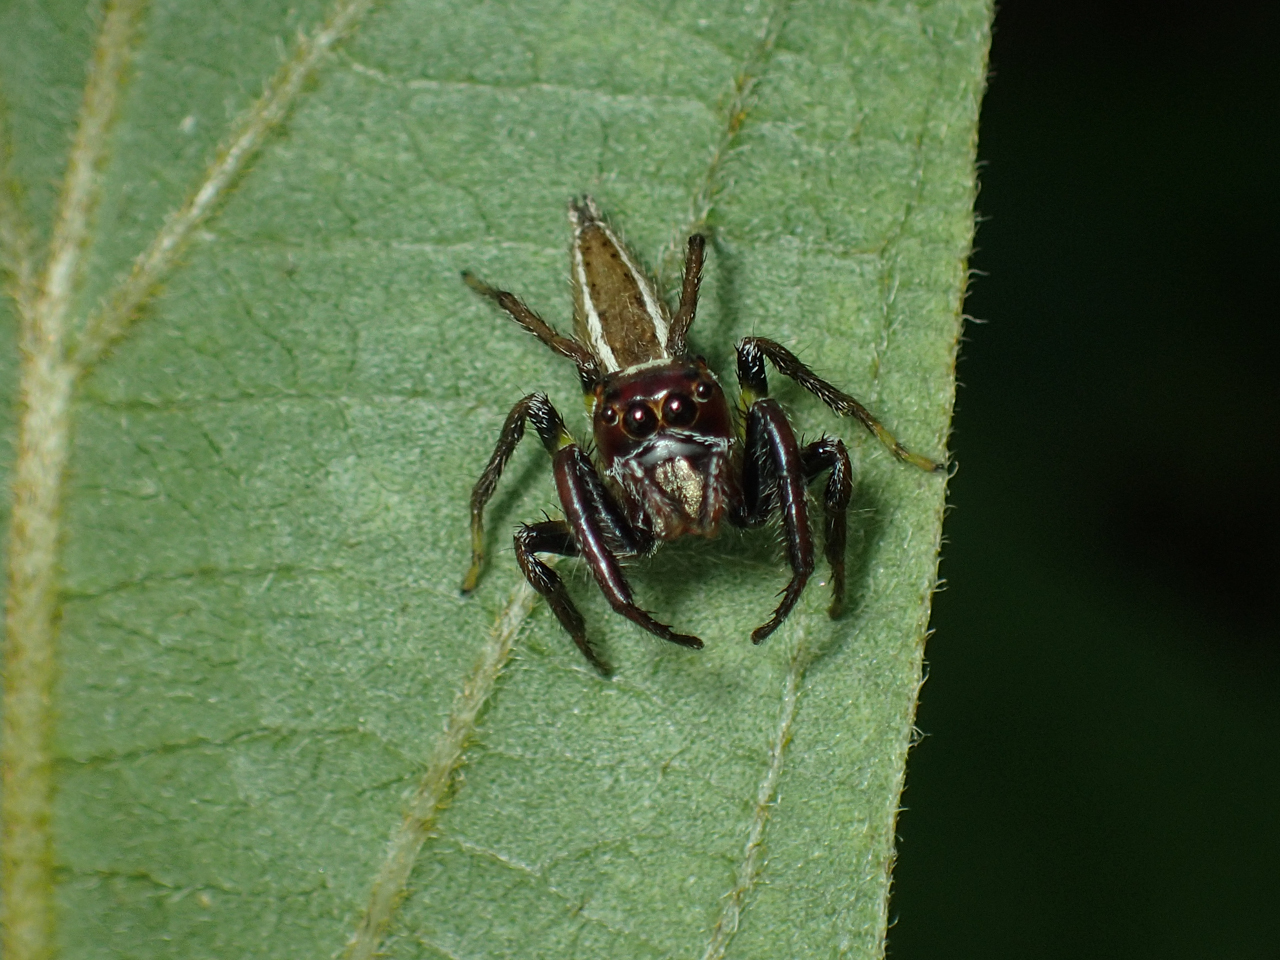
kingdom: Animalia
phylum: Arthropoda
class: Arachnida
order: Araneae
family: Salticidae
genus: Colonus
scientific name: Colonus sylvanus
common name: Jumping spiders
